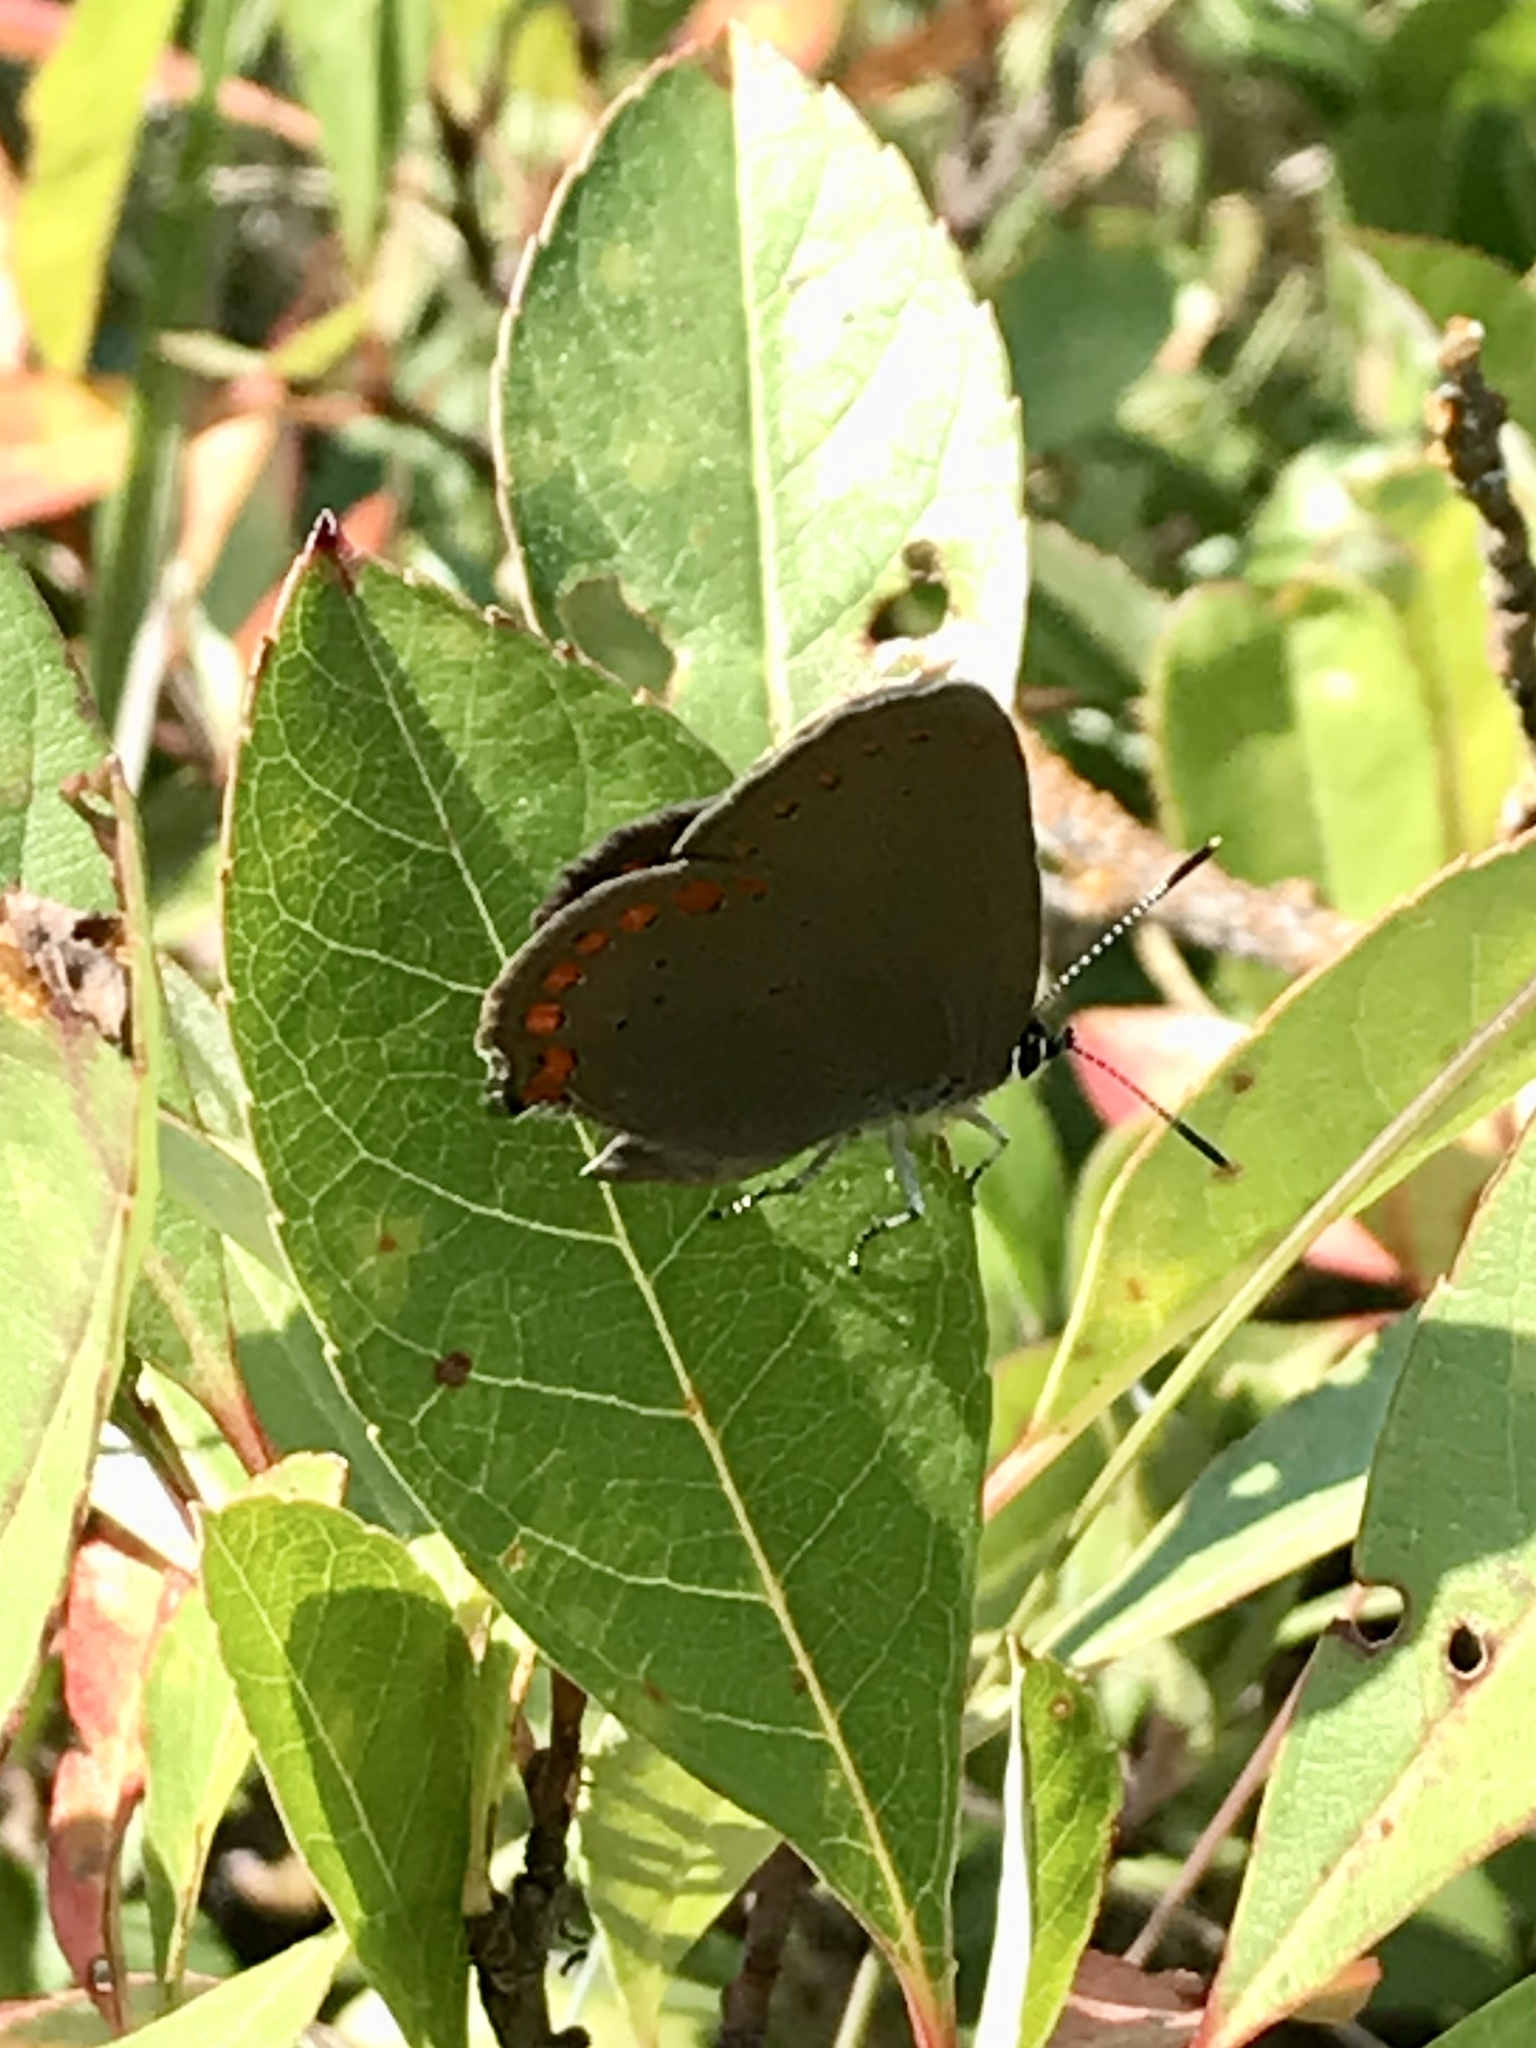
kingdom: Animalia
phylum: Arthropoda
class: Insecta
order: Lepidoptera
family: Lycaenidae
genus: Harkenclenus
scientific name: Harkenclenus titus
